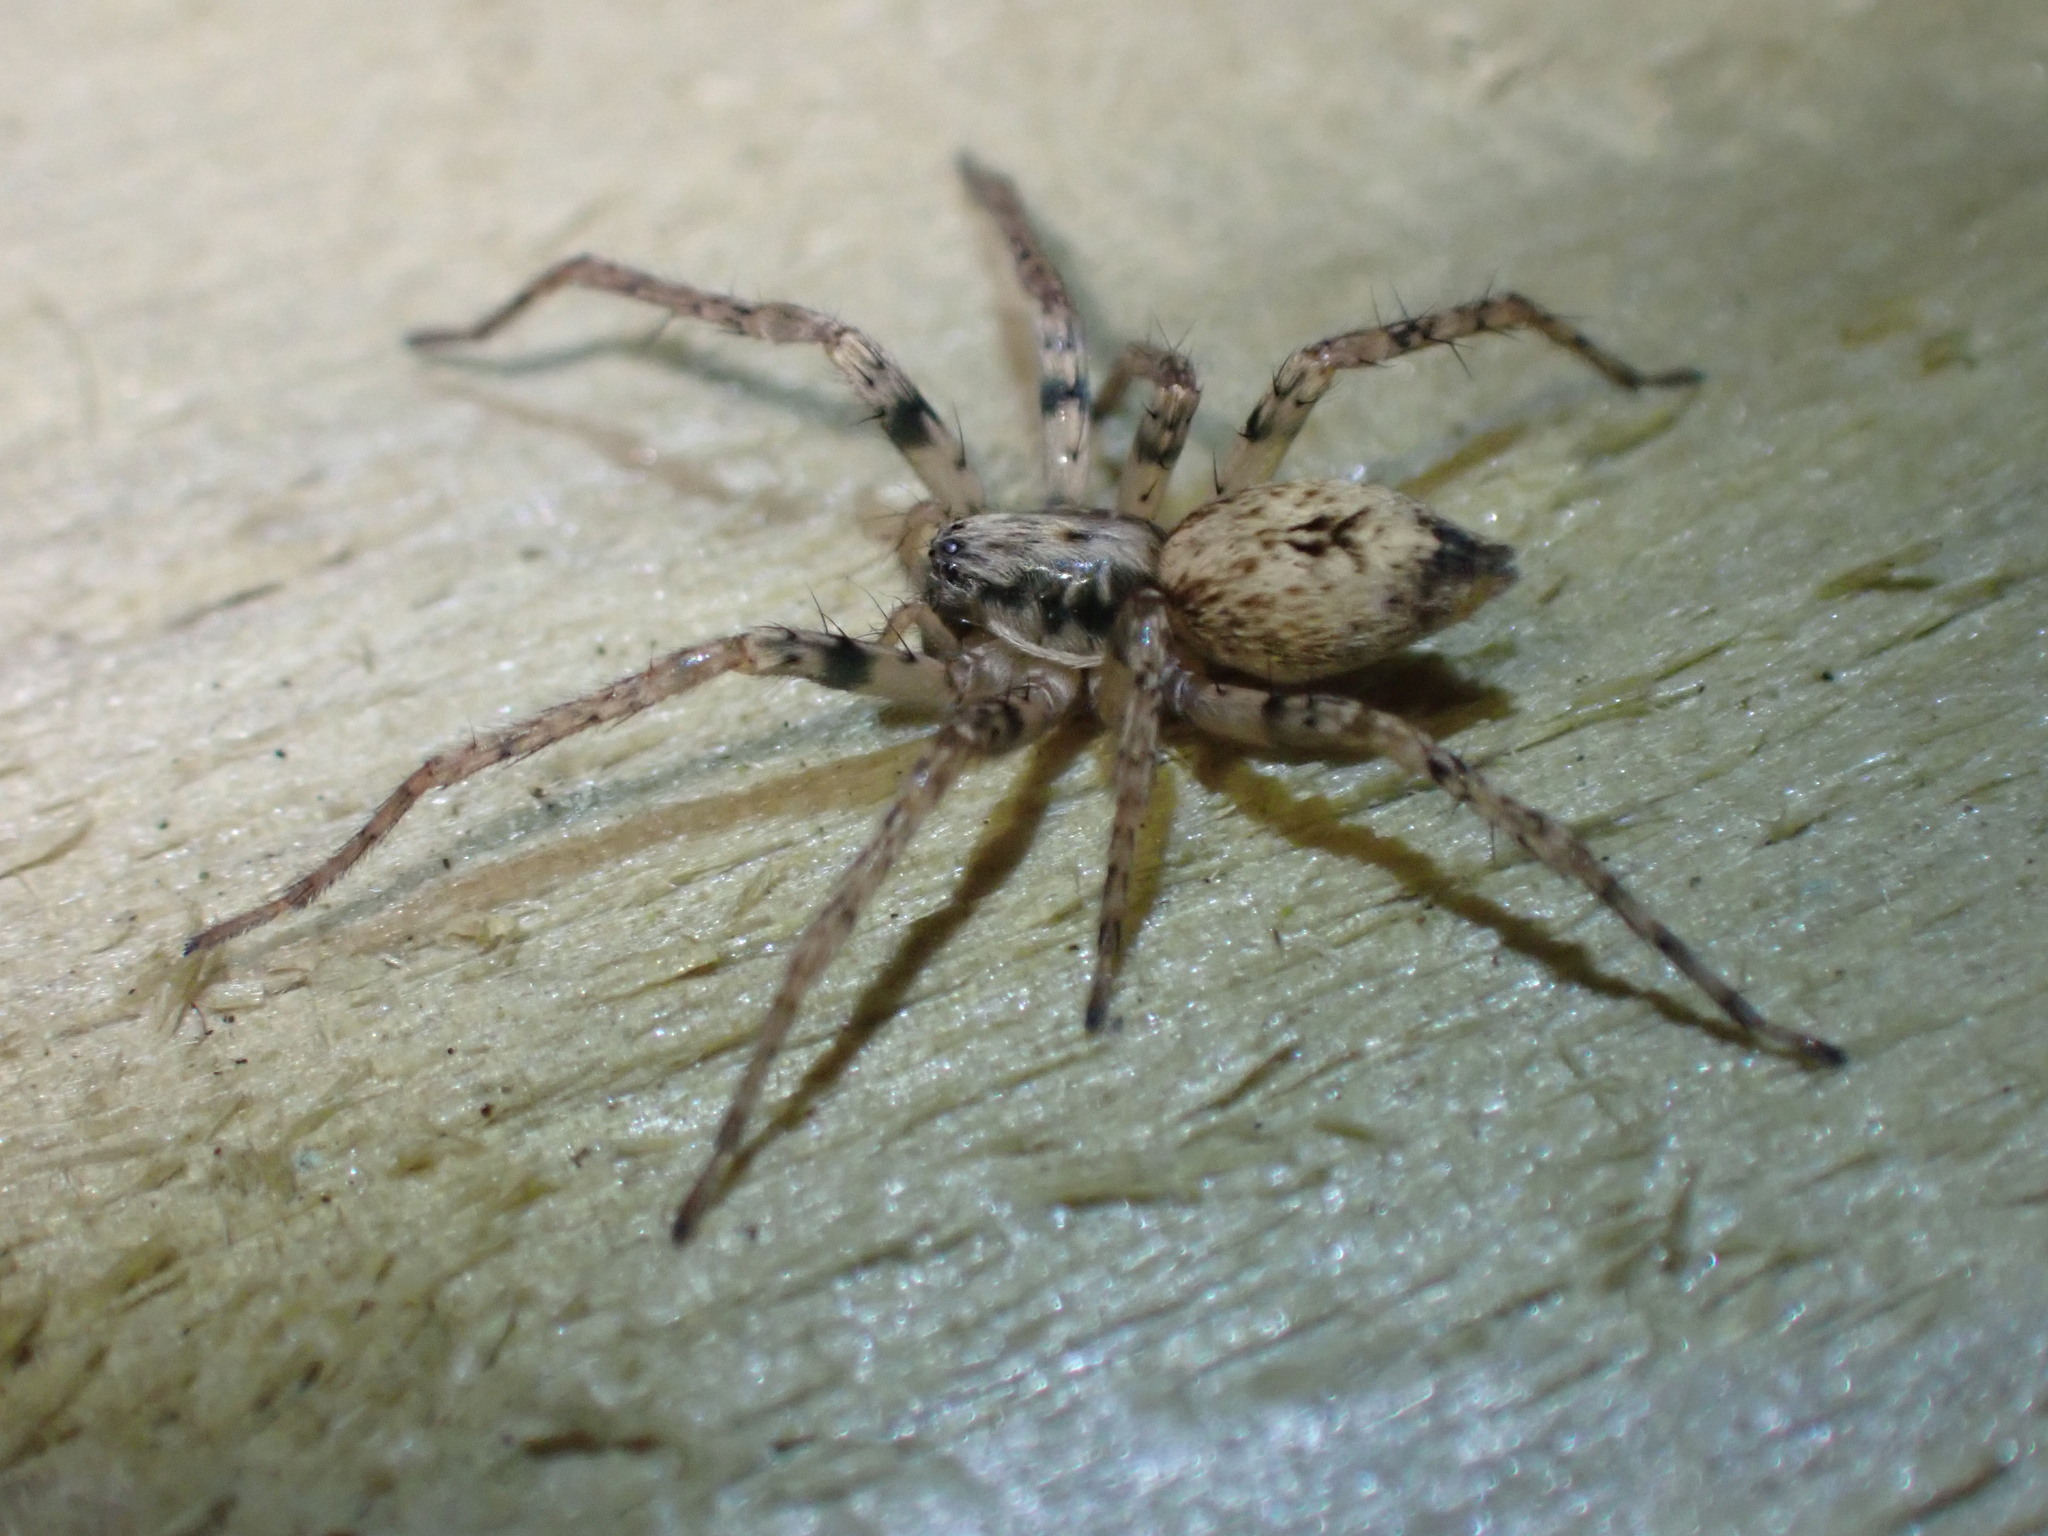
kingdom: Animalia
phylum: Arthropoda
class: Arachnida
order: Araneae
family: Anyphaenidae
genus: Anyphaena
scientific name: Anyphaena accentuata
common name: Buzzing spider
